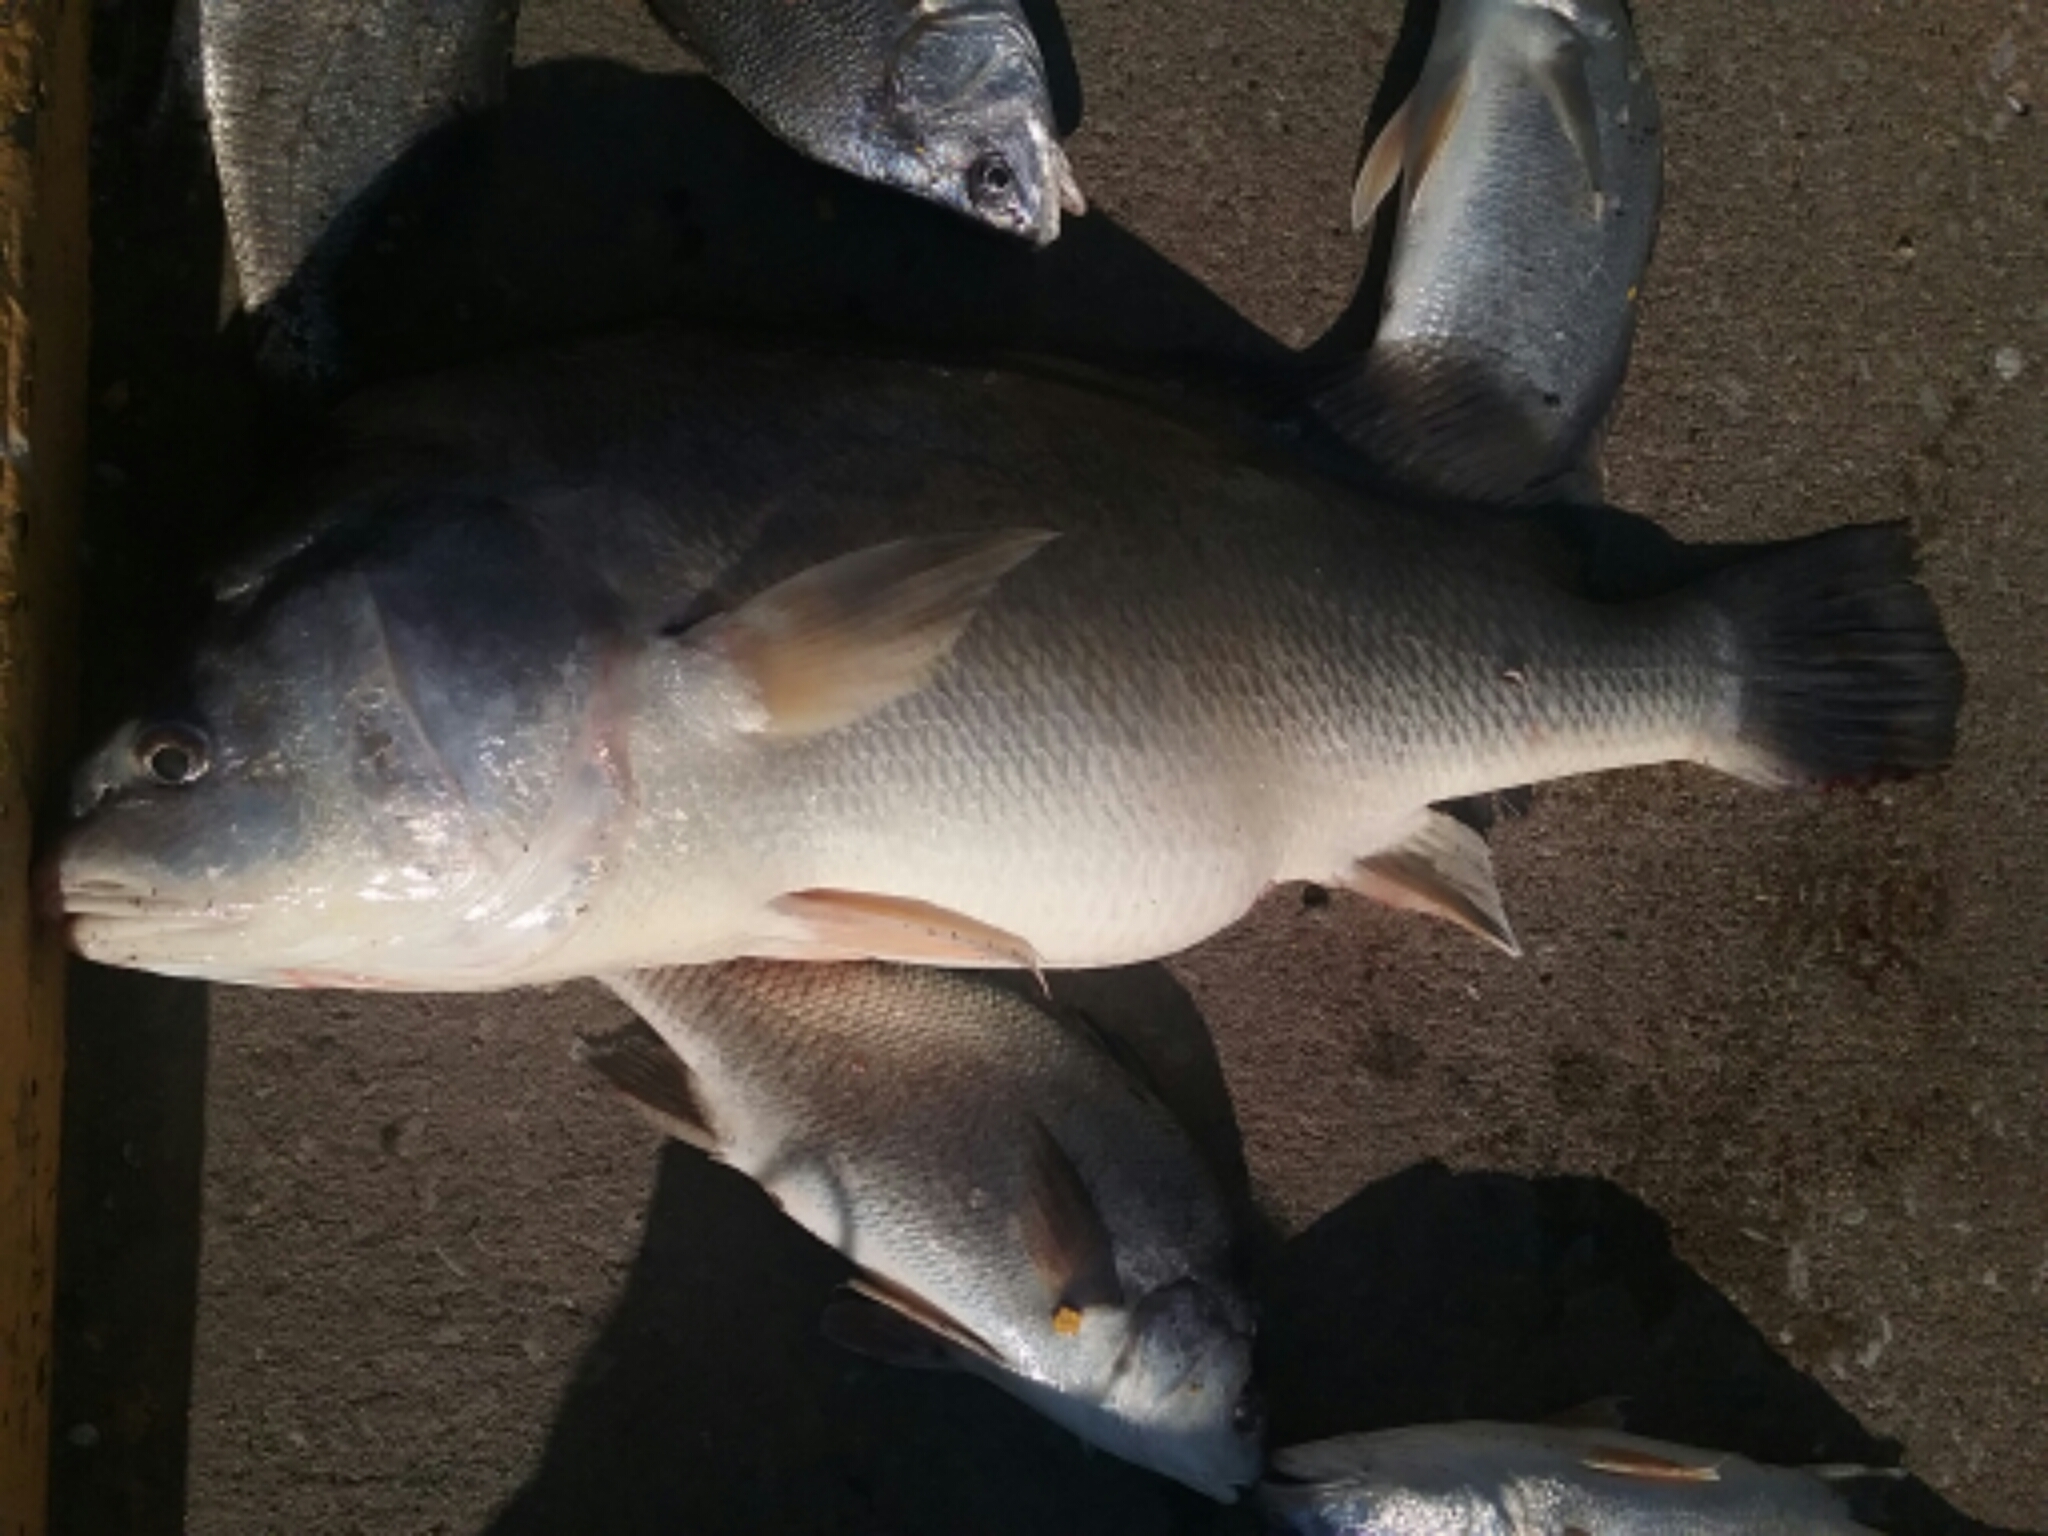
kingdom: Animalia
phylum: Chordata
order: Perciformes
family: Sciaenidae
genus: Aplodinotus
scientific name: Aplodinotus grunniens
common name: Freshwater drum
